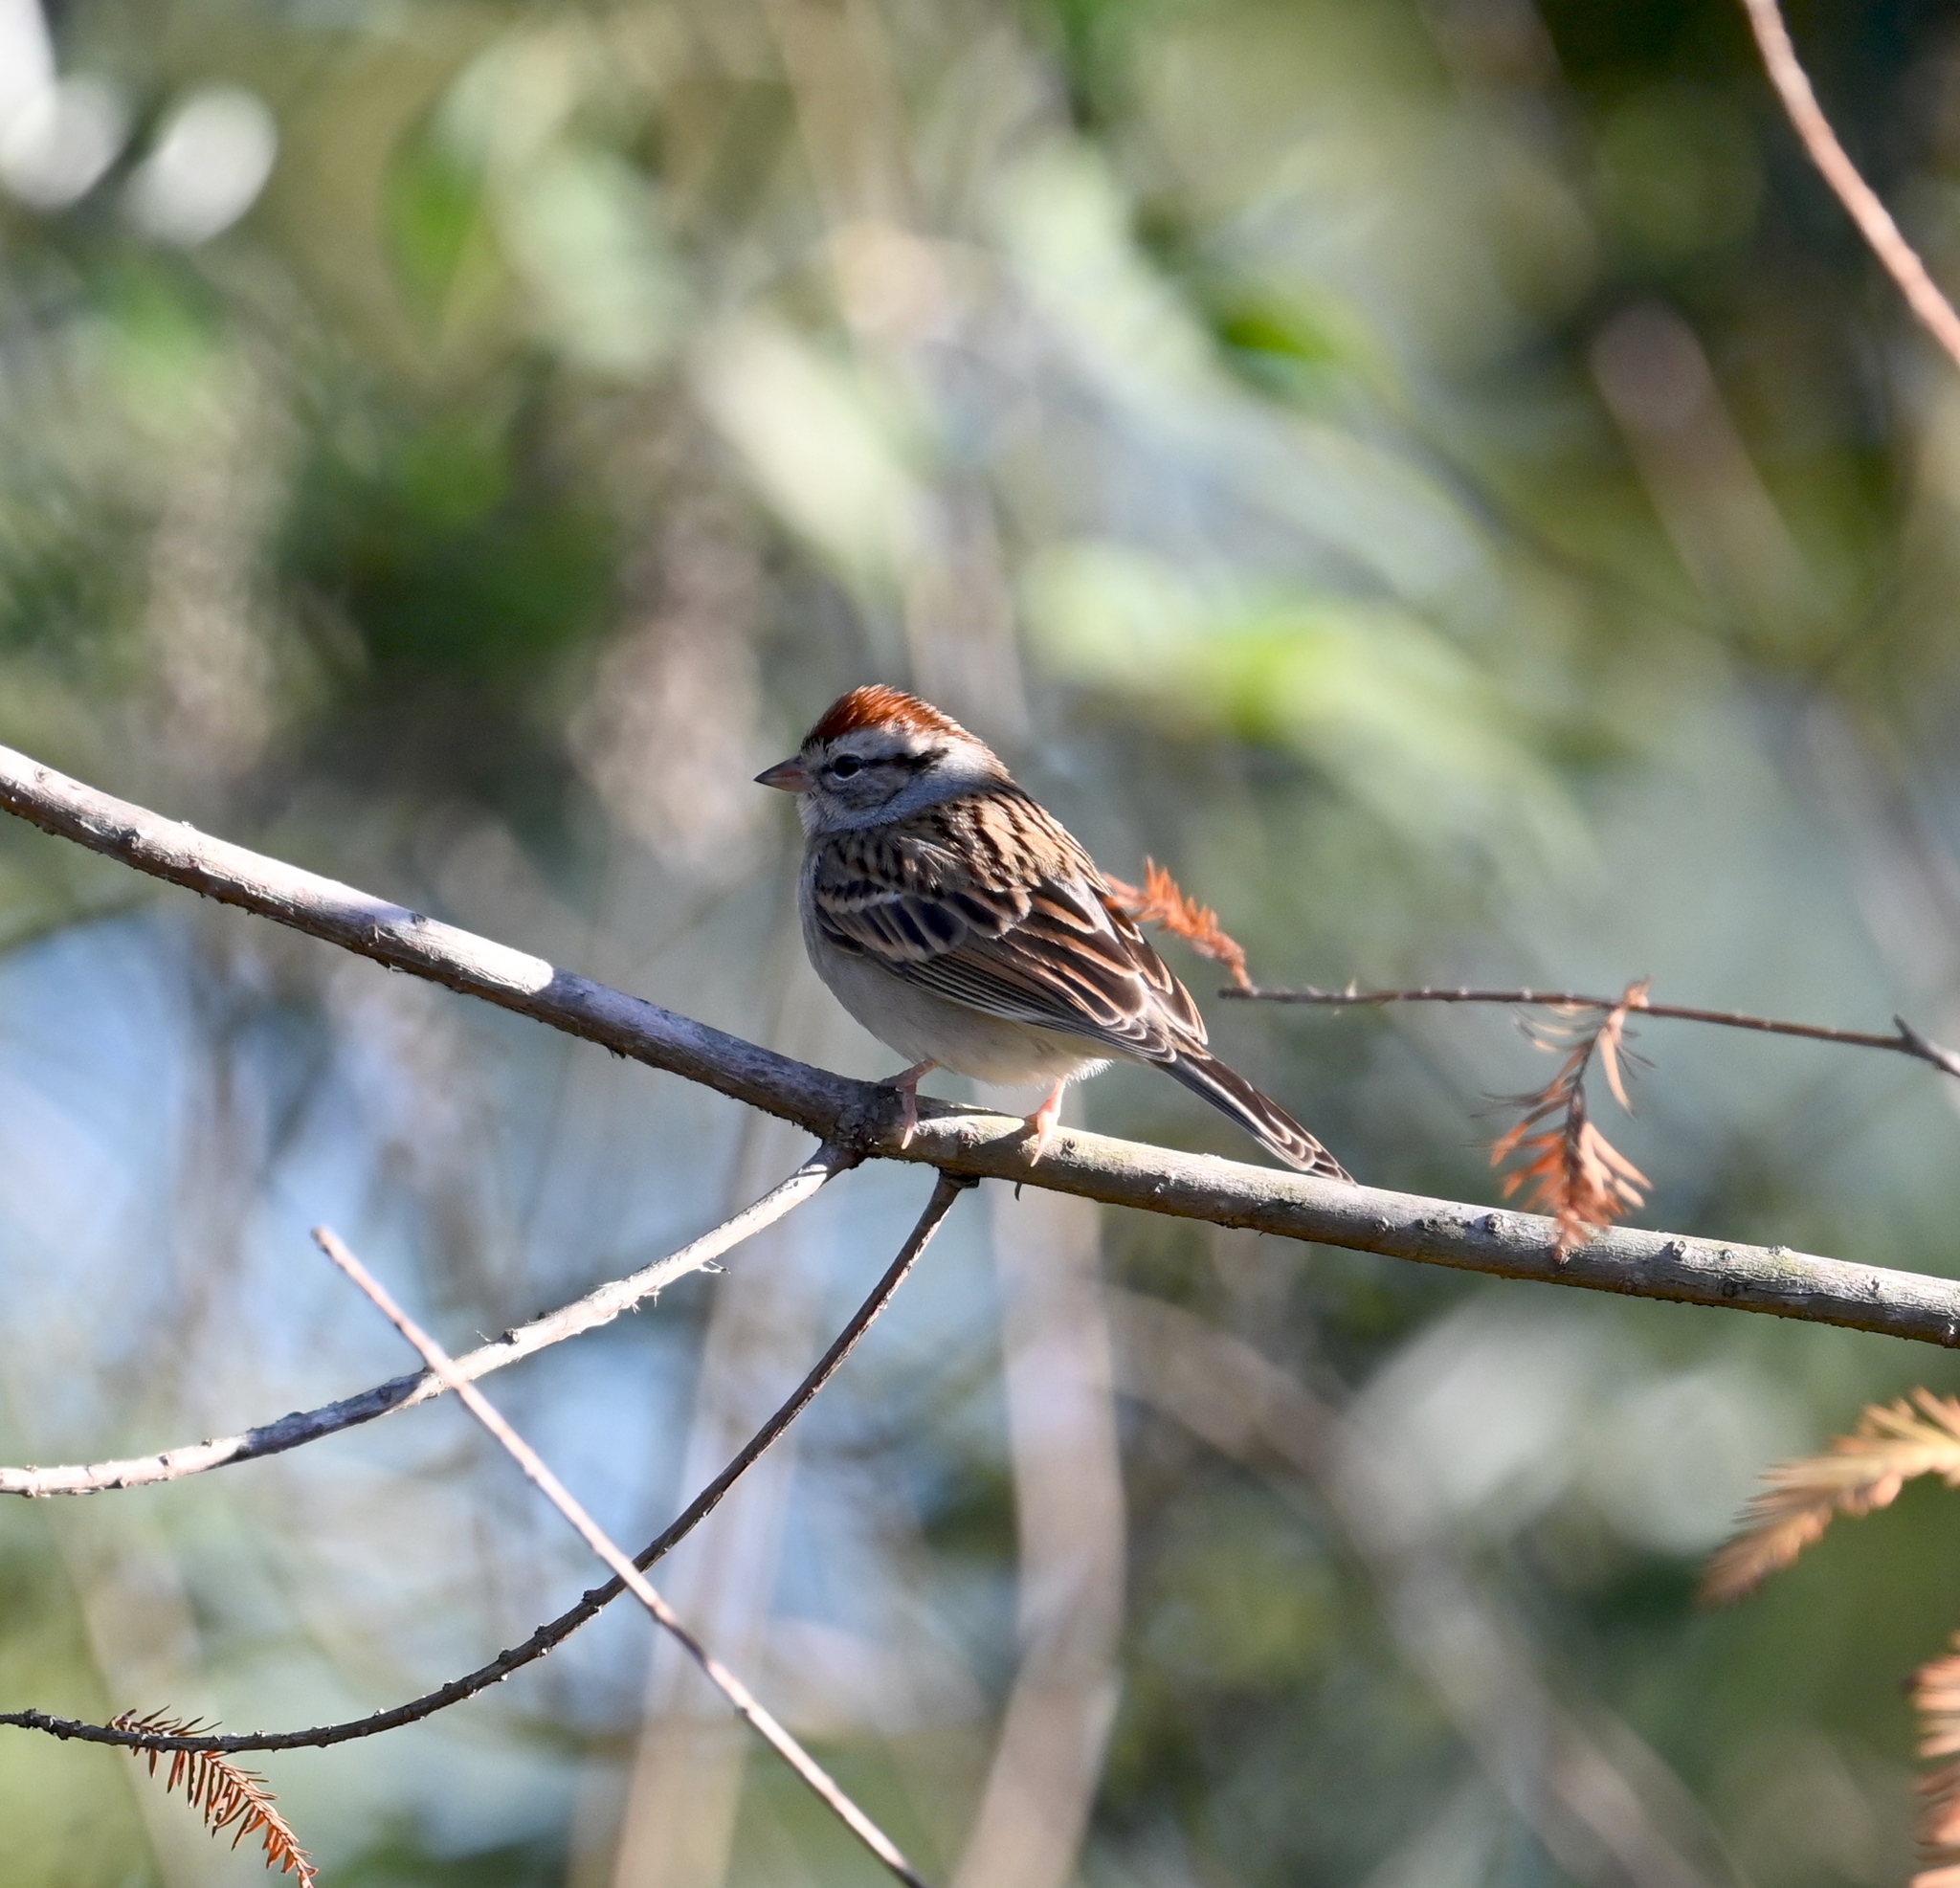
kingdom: Animalia
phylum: Chordata
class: Aves
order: Passeriformes
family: Passerellidae
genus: Spizella
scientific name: Spizella passerina
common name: Chipping sparrow
